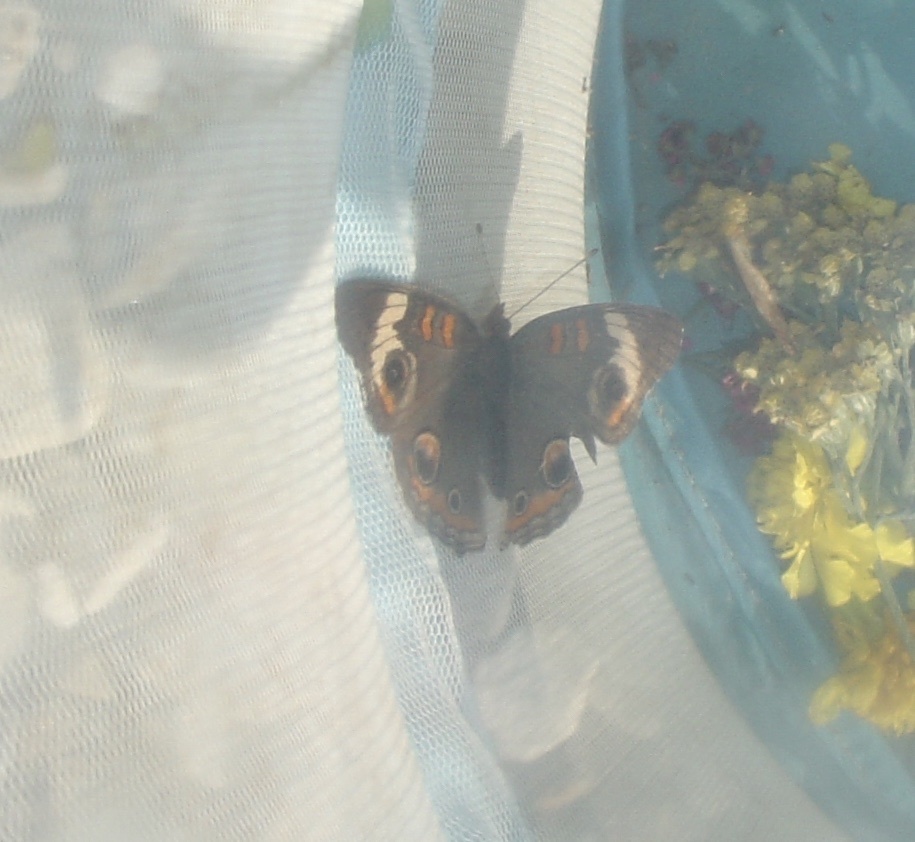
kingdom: Animalia
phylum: Arthropoda
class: Insecta
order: Lepidoptera
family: Nymphalidae
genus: Junonia
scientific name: Junonia coenia
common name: Common buckeye
